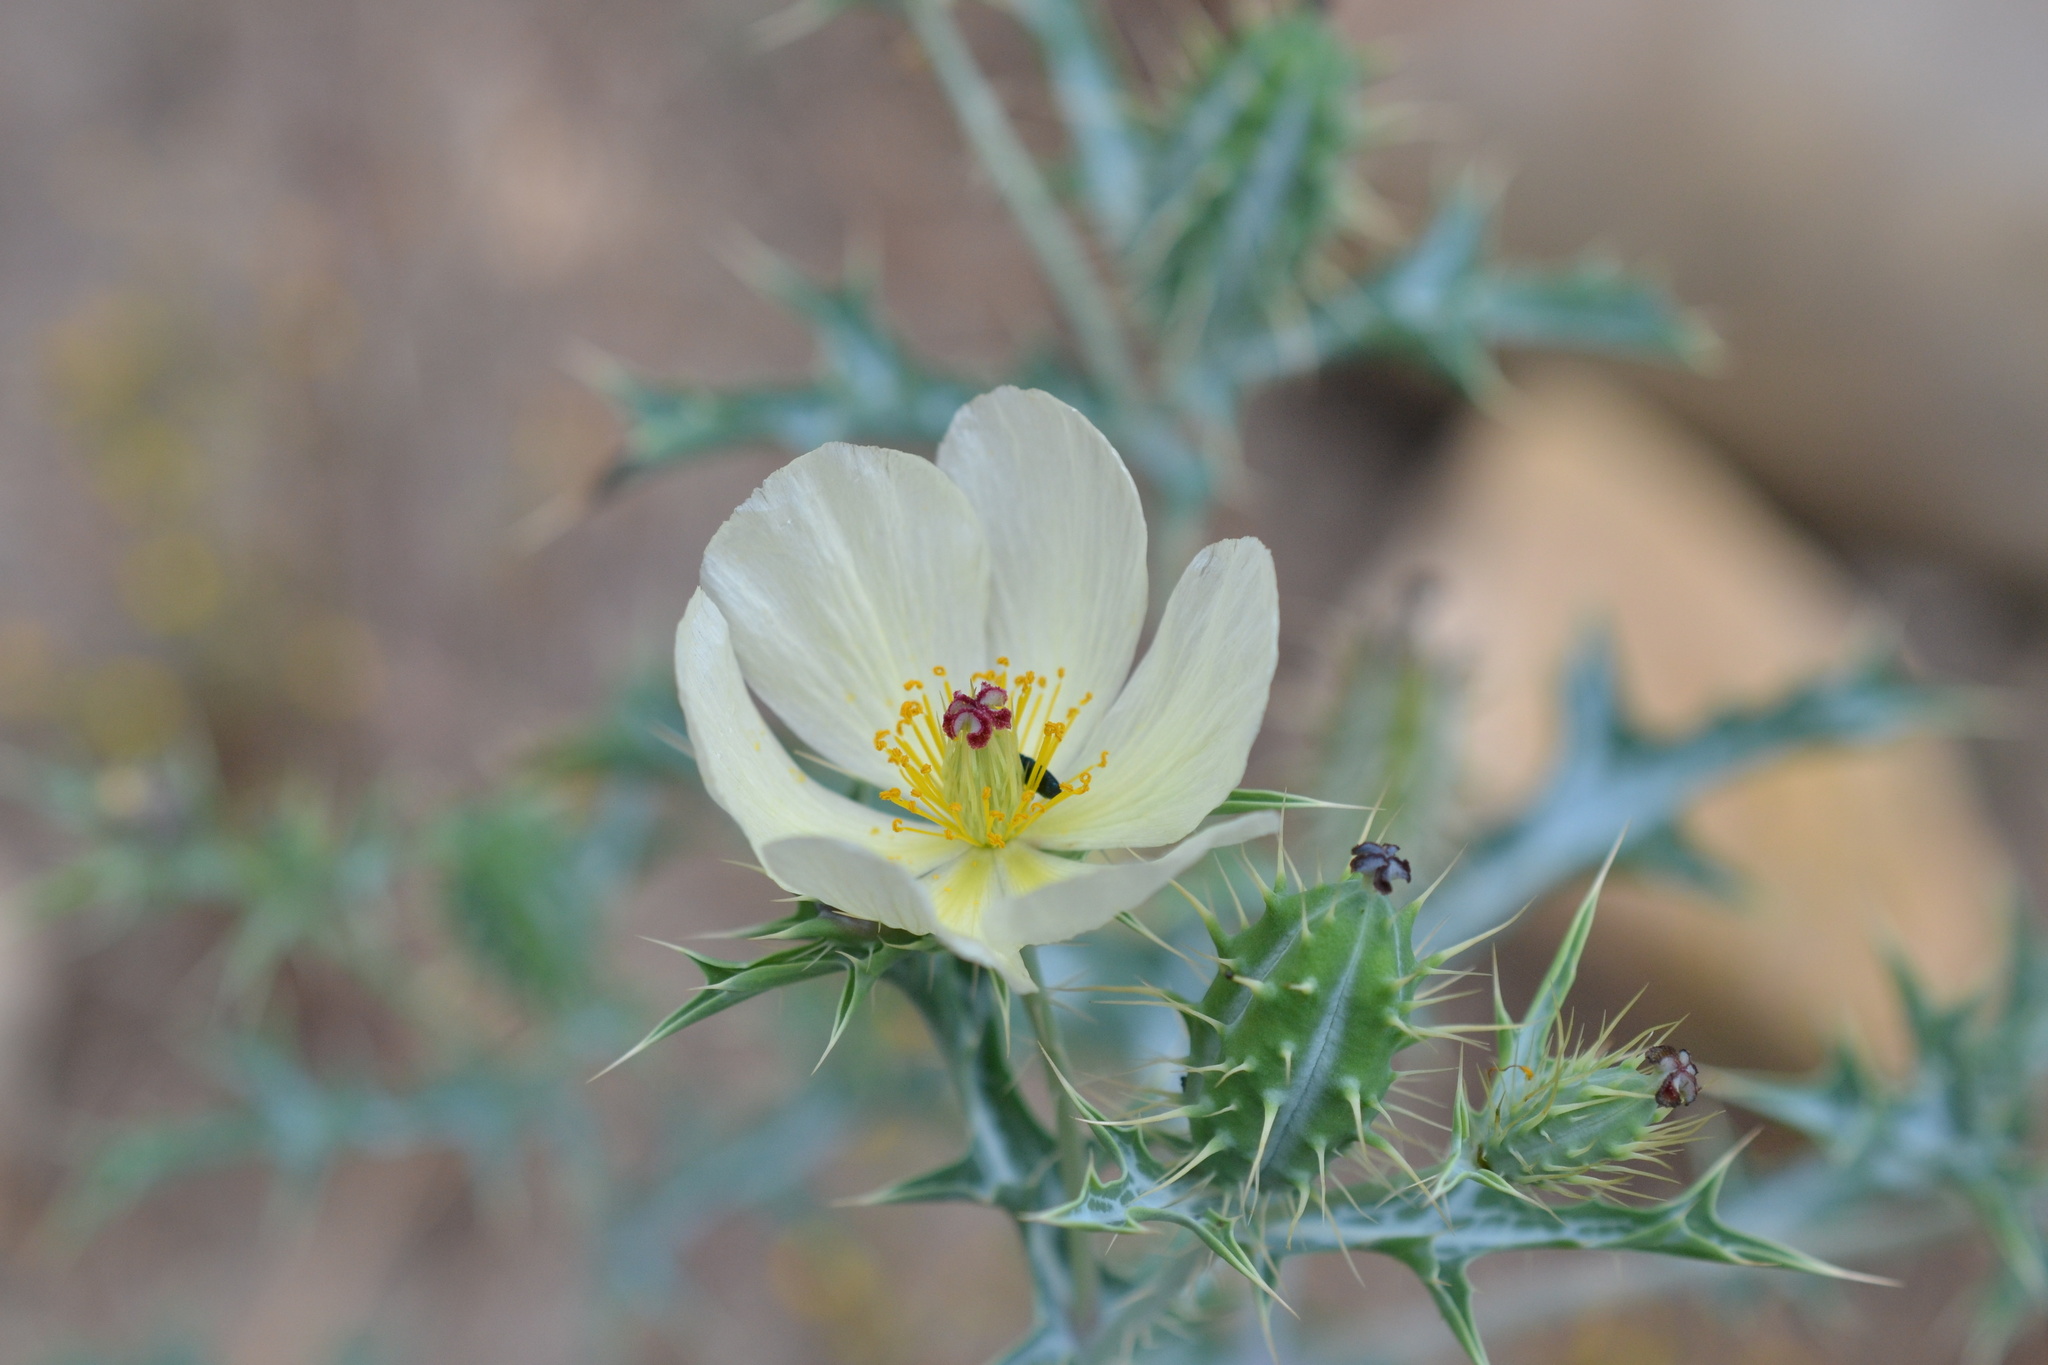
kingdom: Plantae
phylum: Tracheophyta
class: Magnoliopsida
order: Ranunculales
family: Papaveraceae
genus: Argemone
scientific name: Argemone ochroleuca
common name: White-flower mexican-poppy
